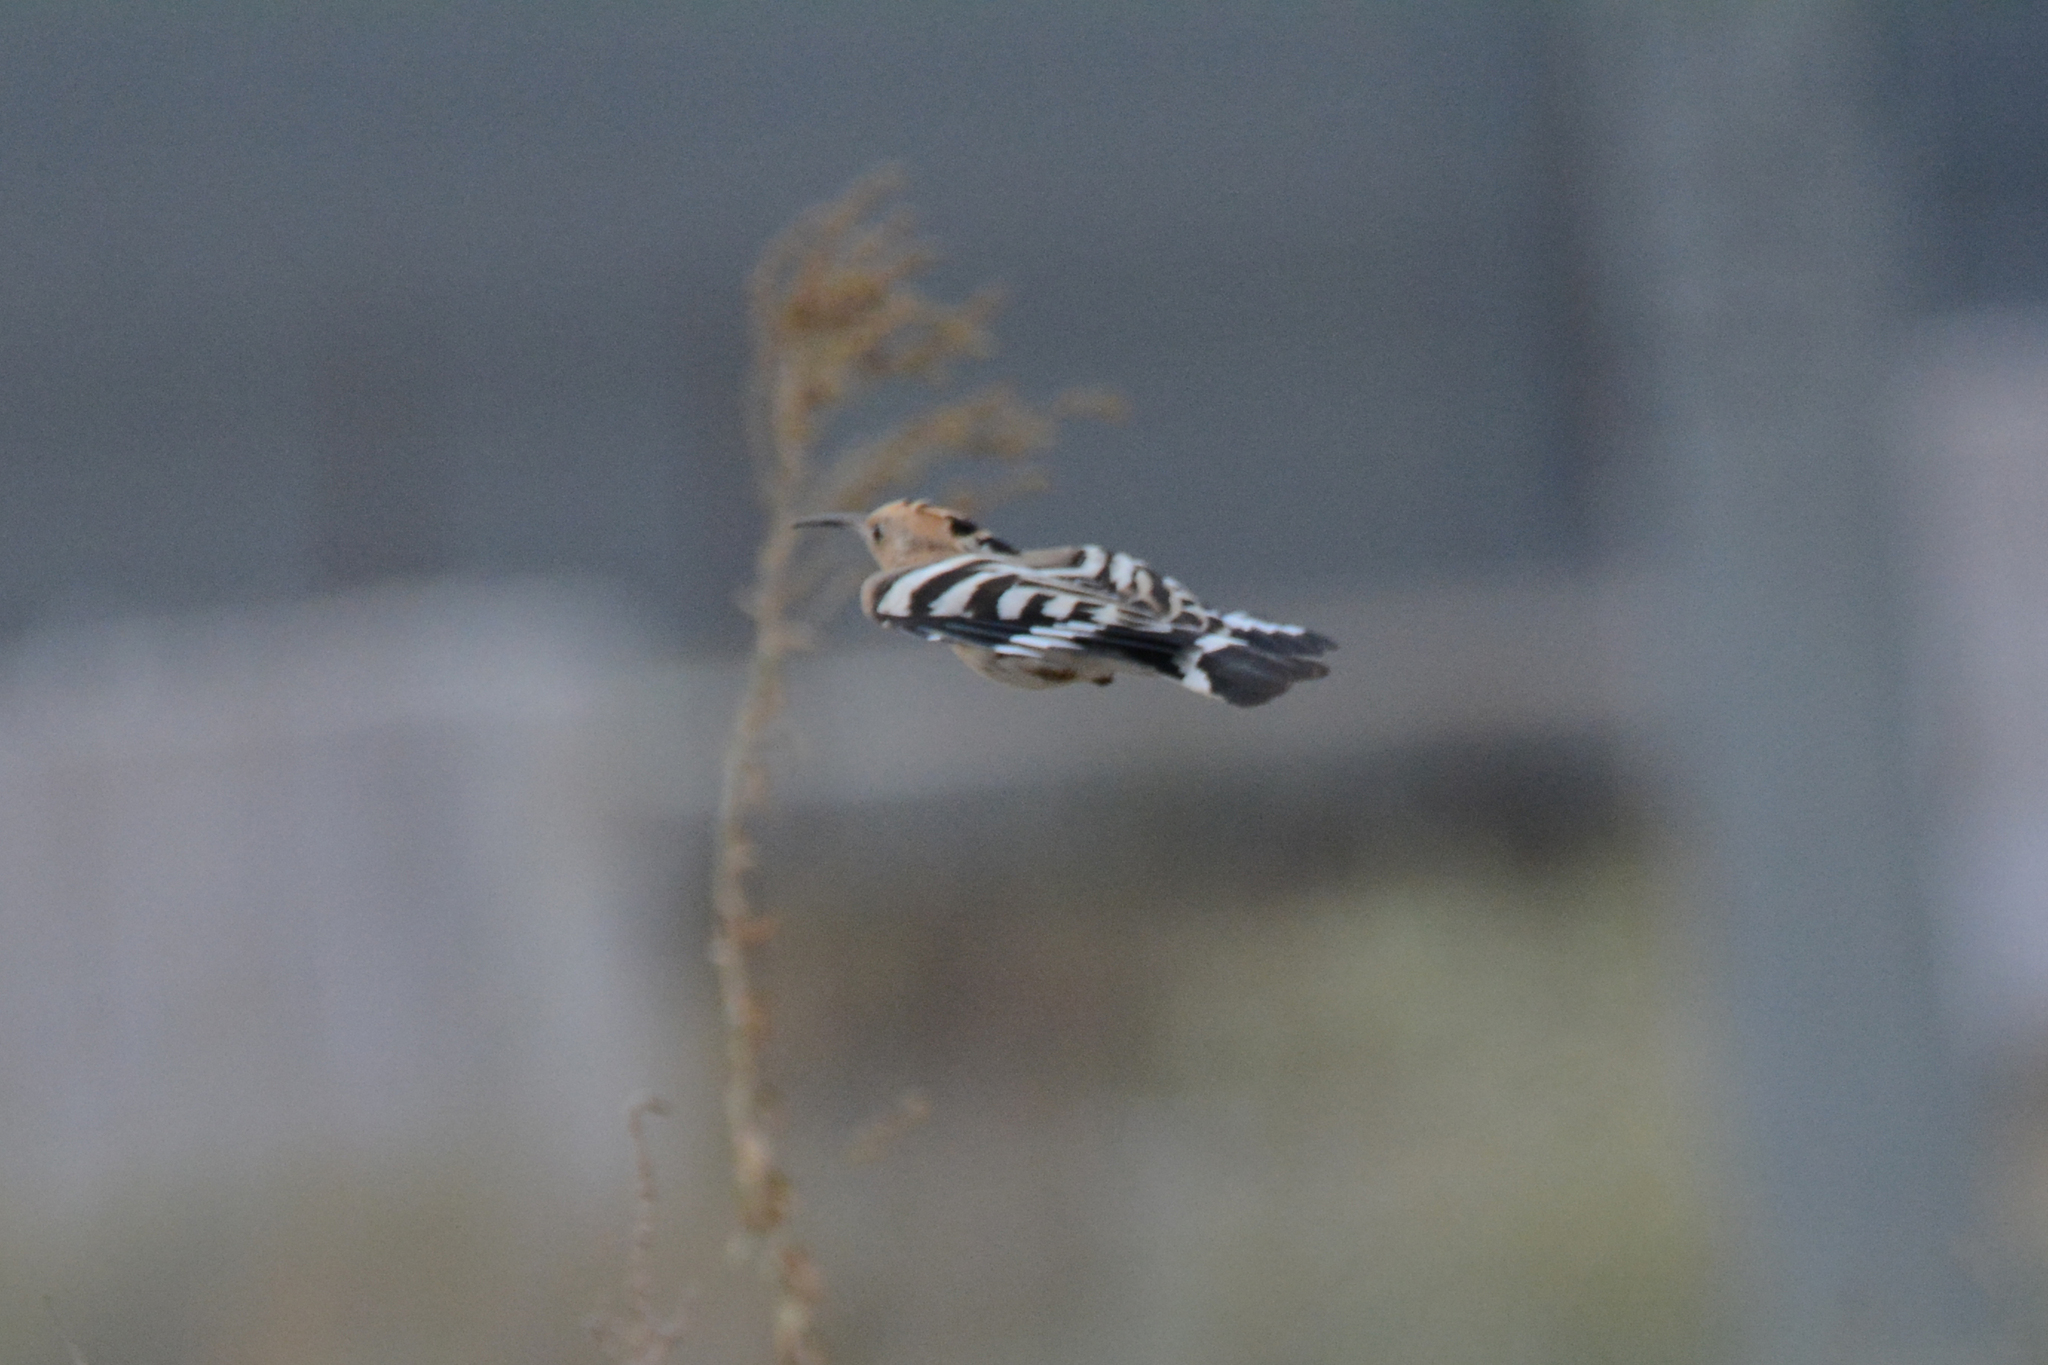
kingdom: Animalia
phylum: Chordata
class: Aves
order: Bucerotiformes
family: Upupidae
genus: Upupa
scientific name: Upupa epops
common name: Eurasian hoopoe
